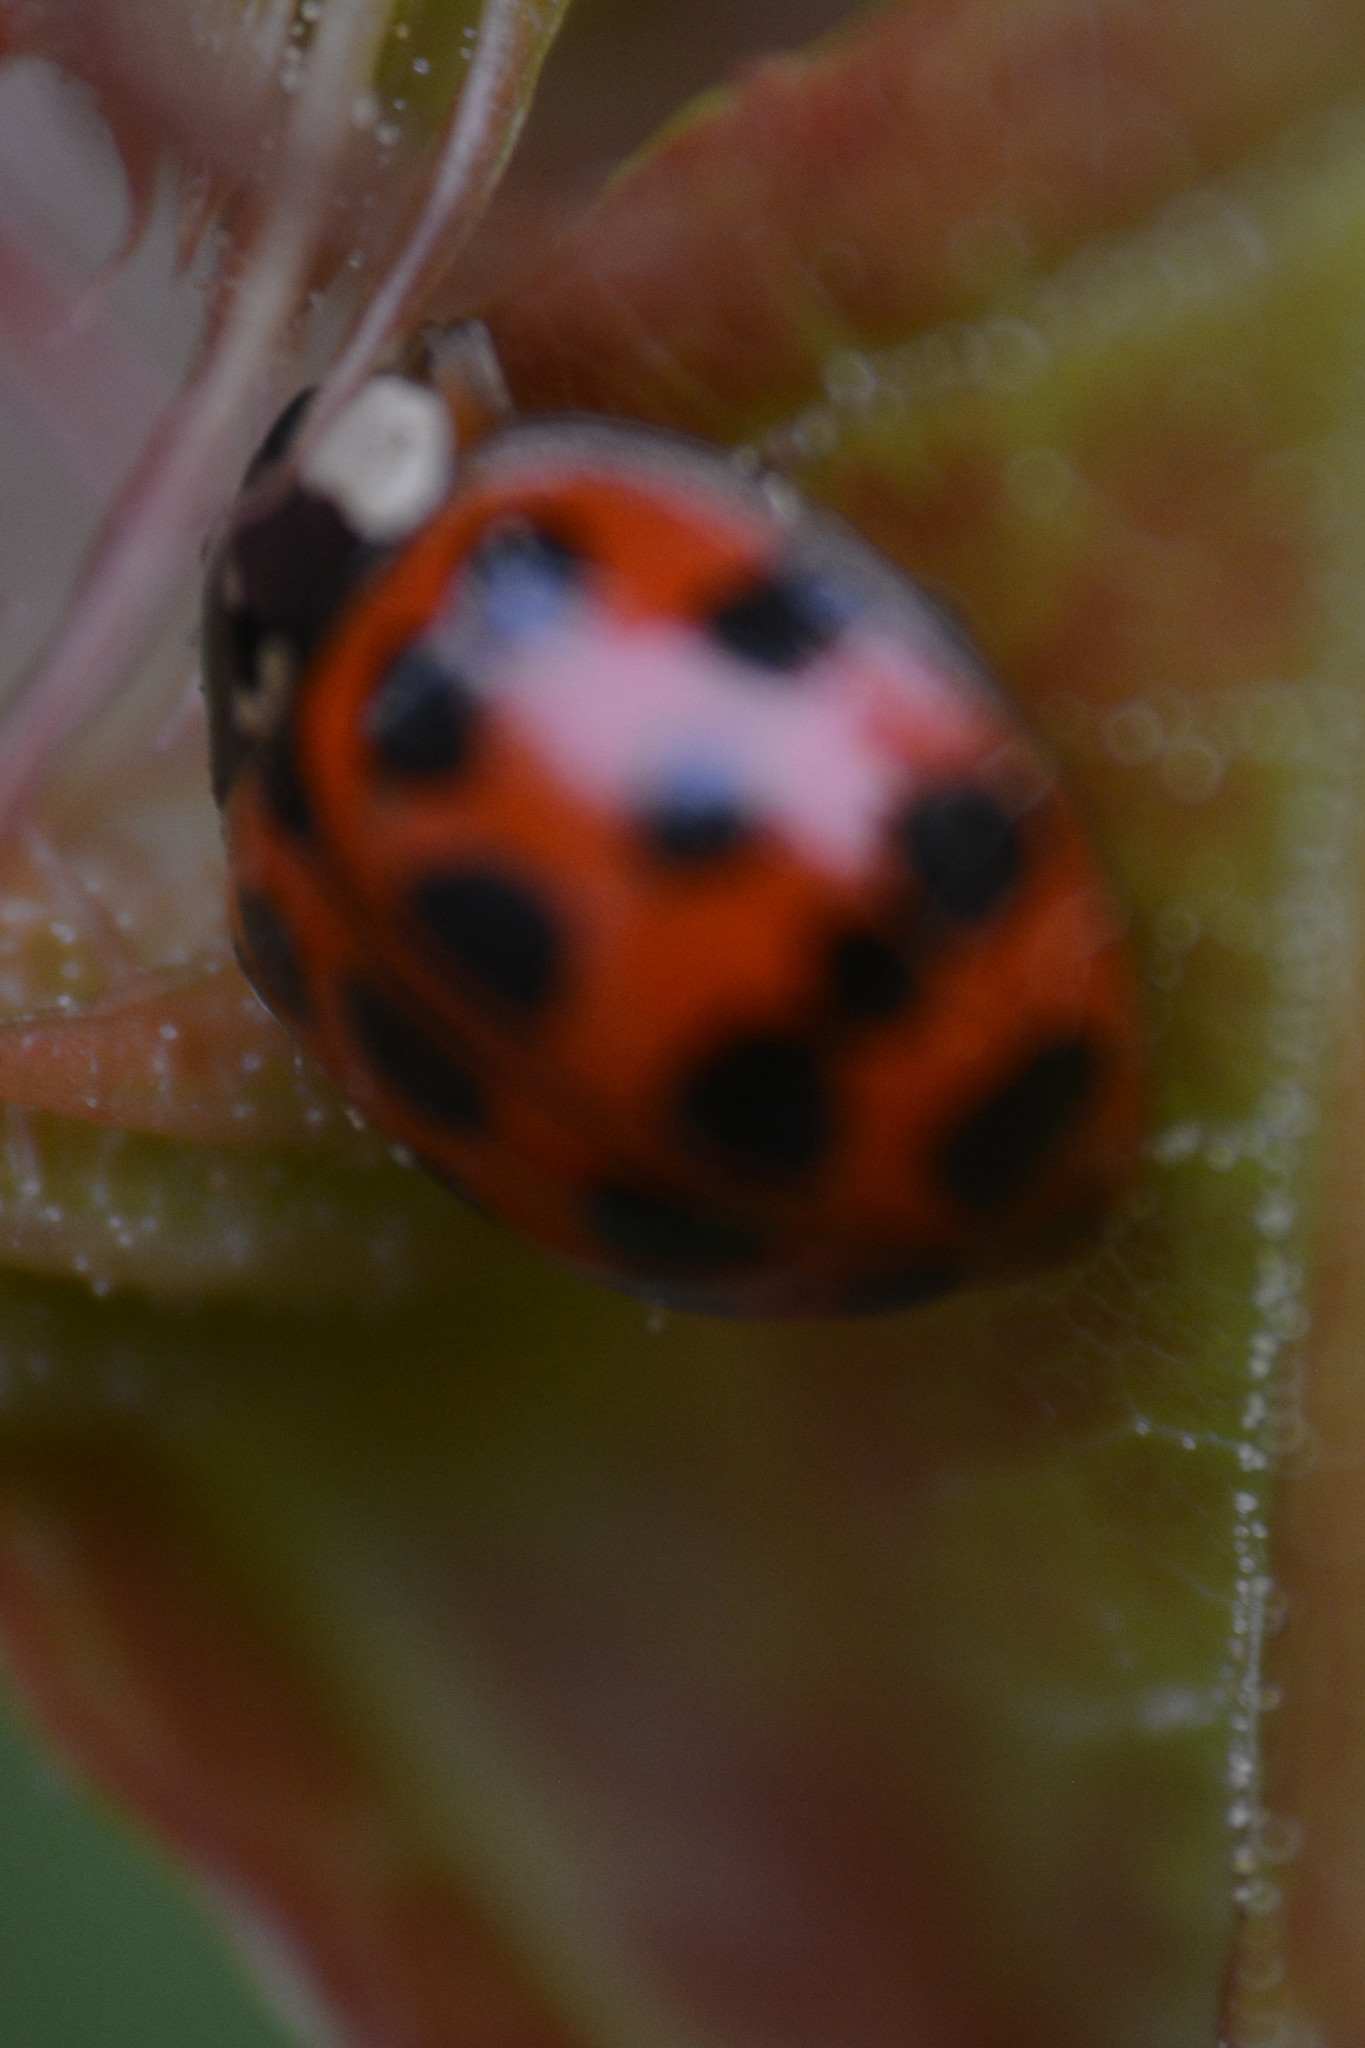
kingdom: Animalia
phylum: Arthropoda
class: Insecta
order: Coleoptera
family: Coccinellidae
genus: Harmonia
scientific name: Harmonia axyridis
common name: Harlequin ladybird
